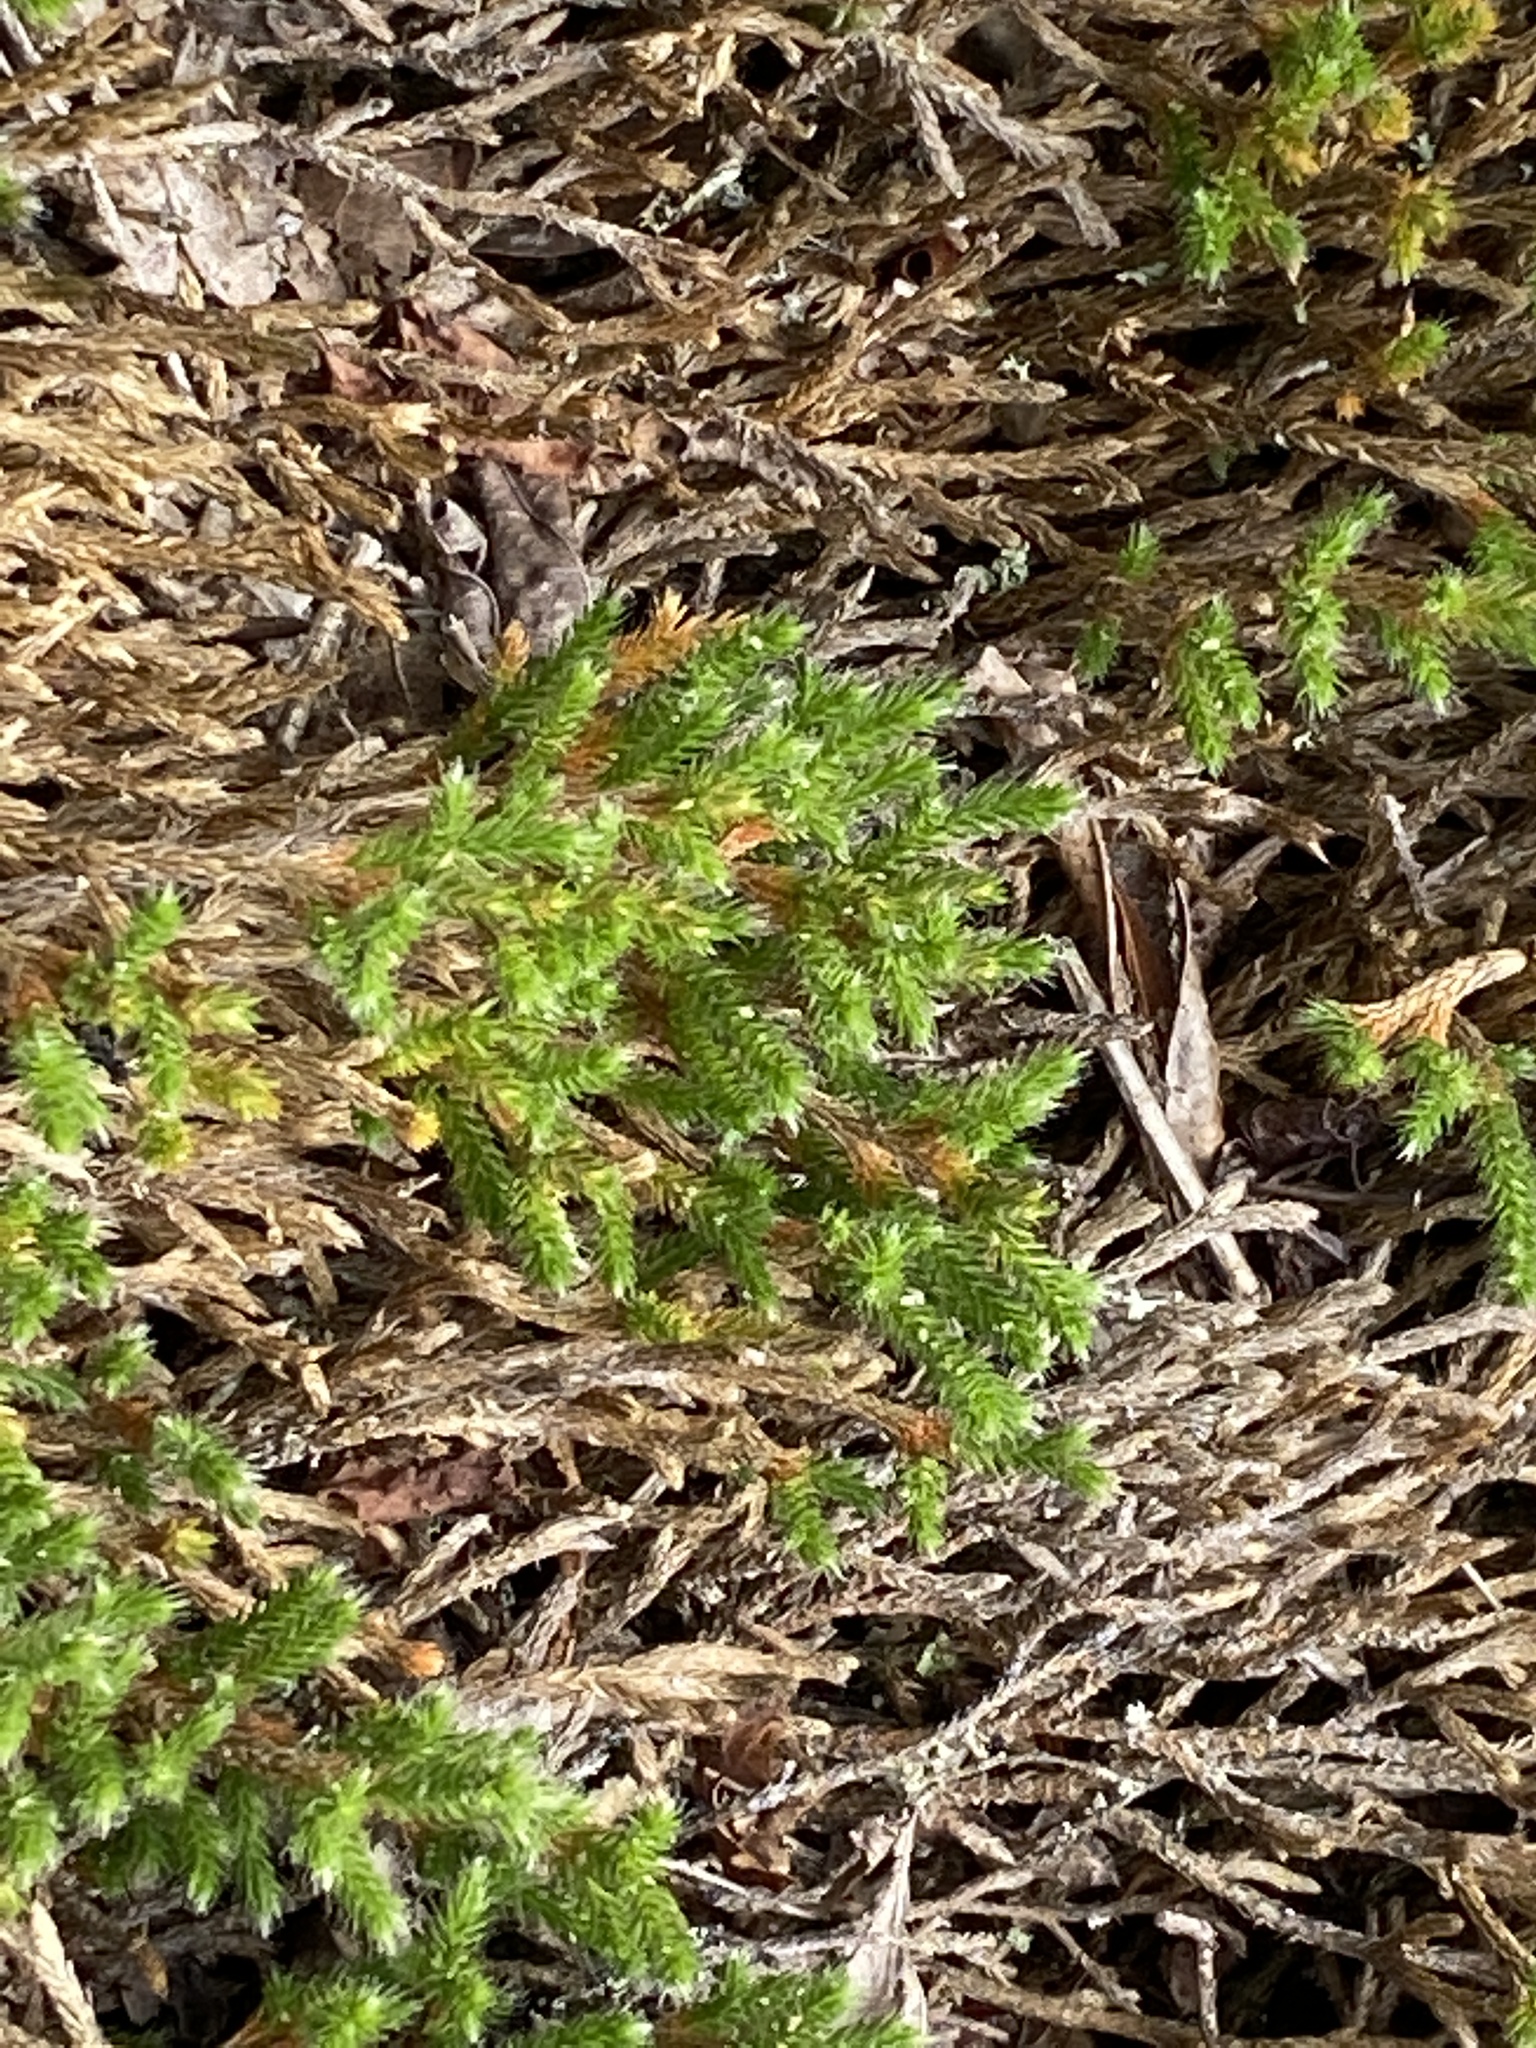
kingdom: Plantae
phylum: Tracheophyta
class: Lycopodiopsida
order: Selaginellales
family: Selaginellaceae
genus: Selaginella
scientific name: Selaginella tortipila
